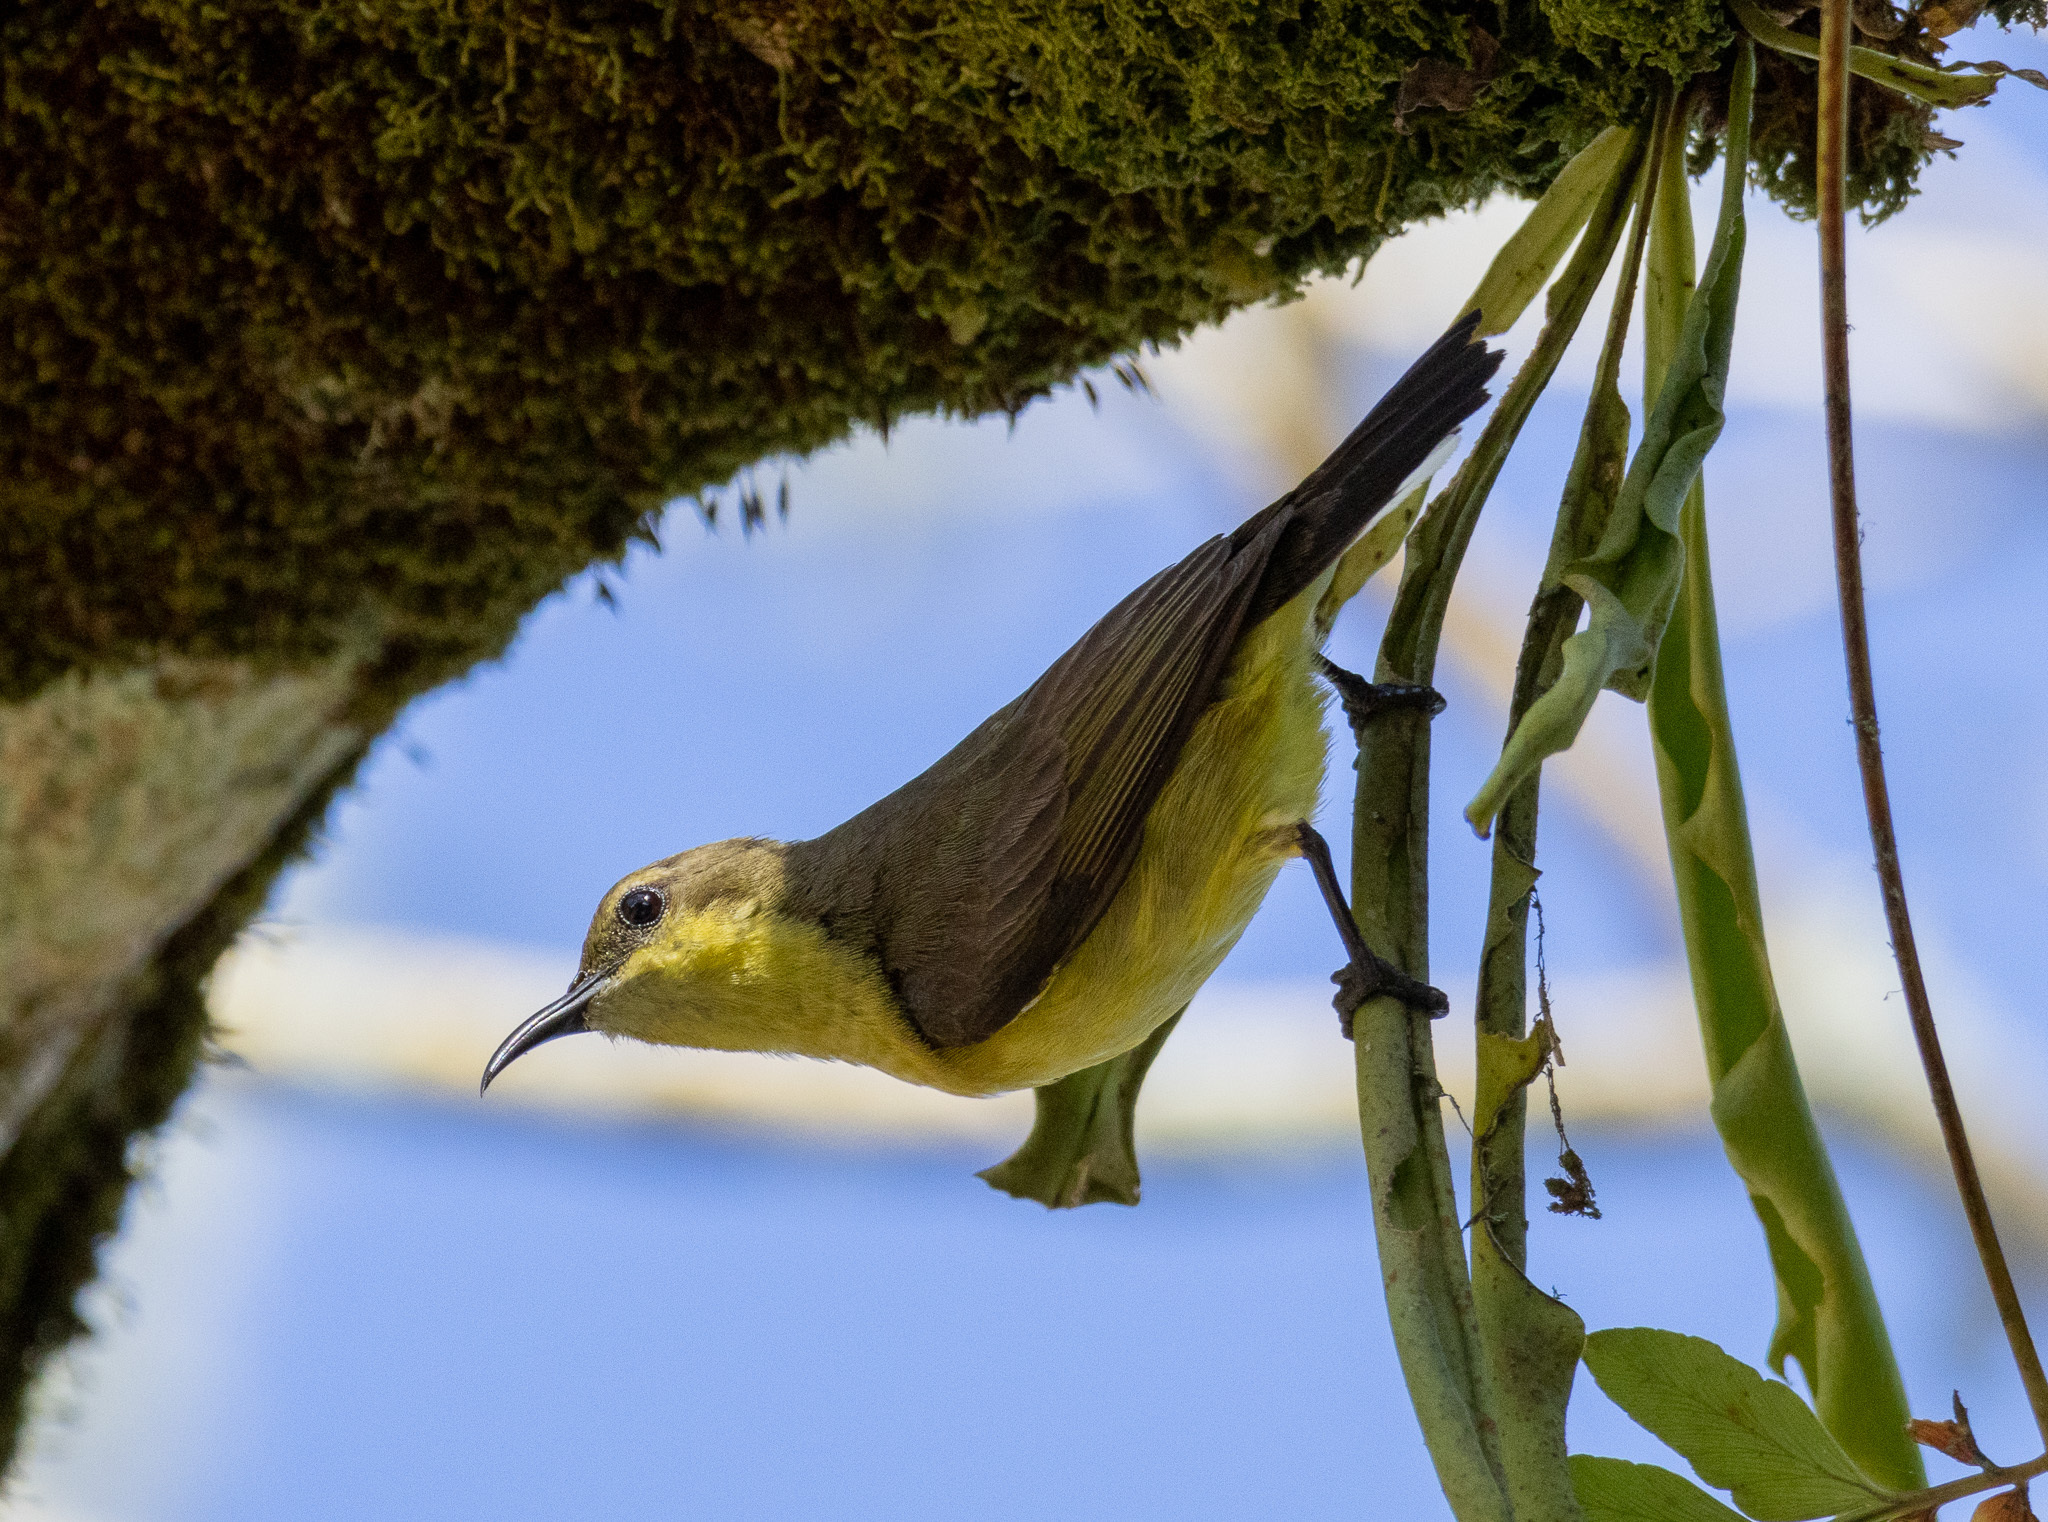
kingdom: Animalia
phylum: Chordata
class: Aves
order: Passeriformes
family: Nectariniidae
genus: Cinnyris
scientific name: Cinnyris
